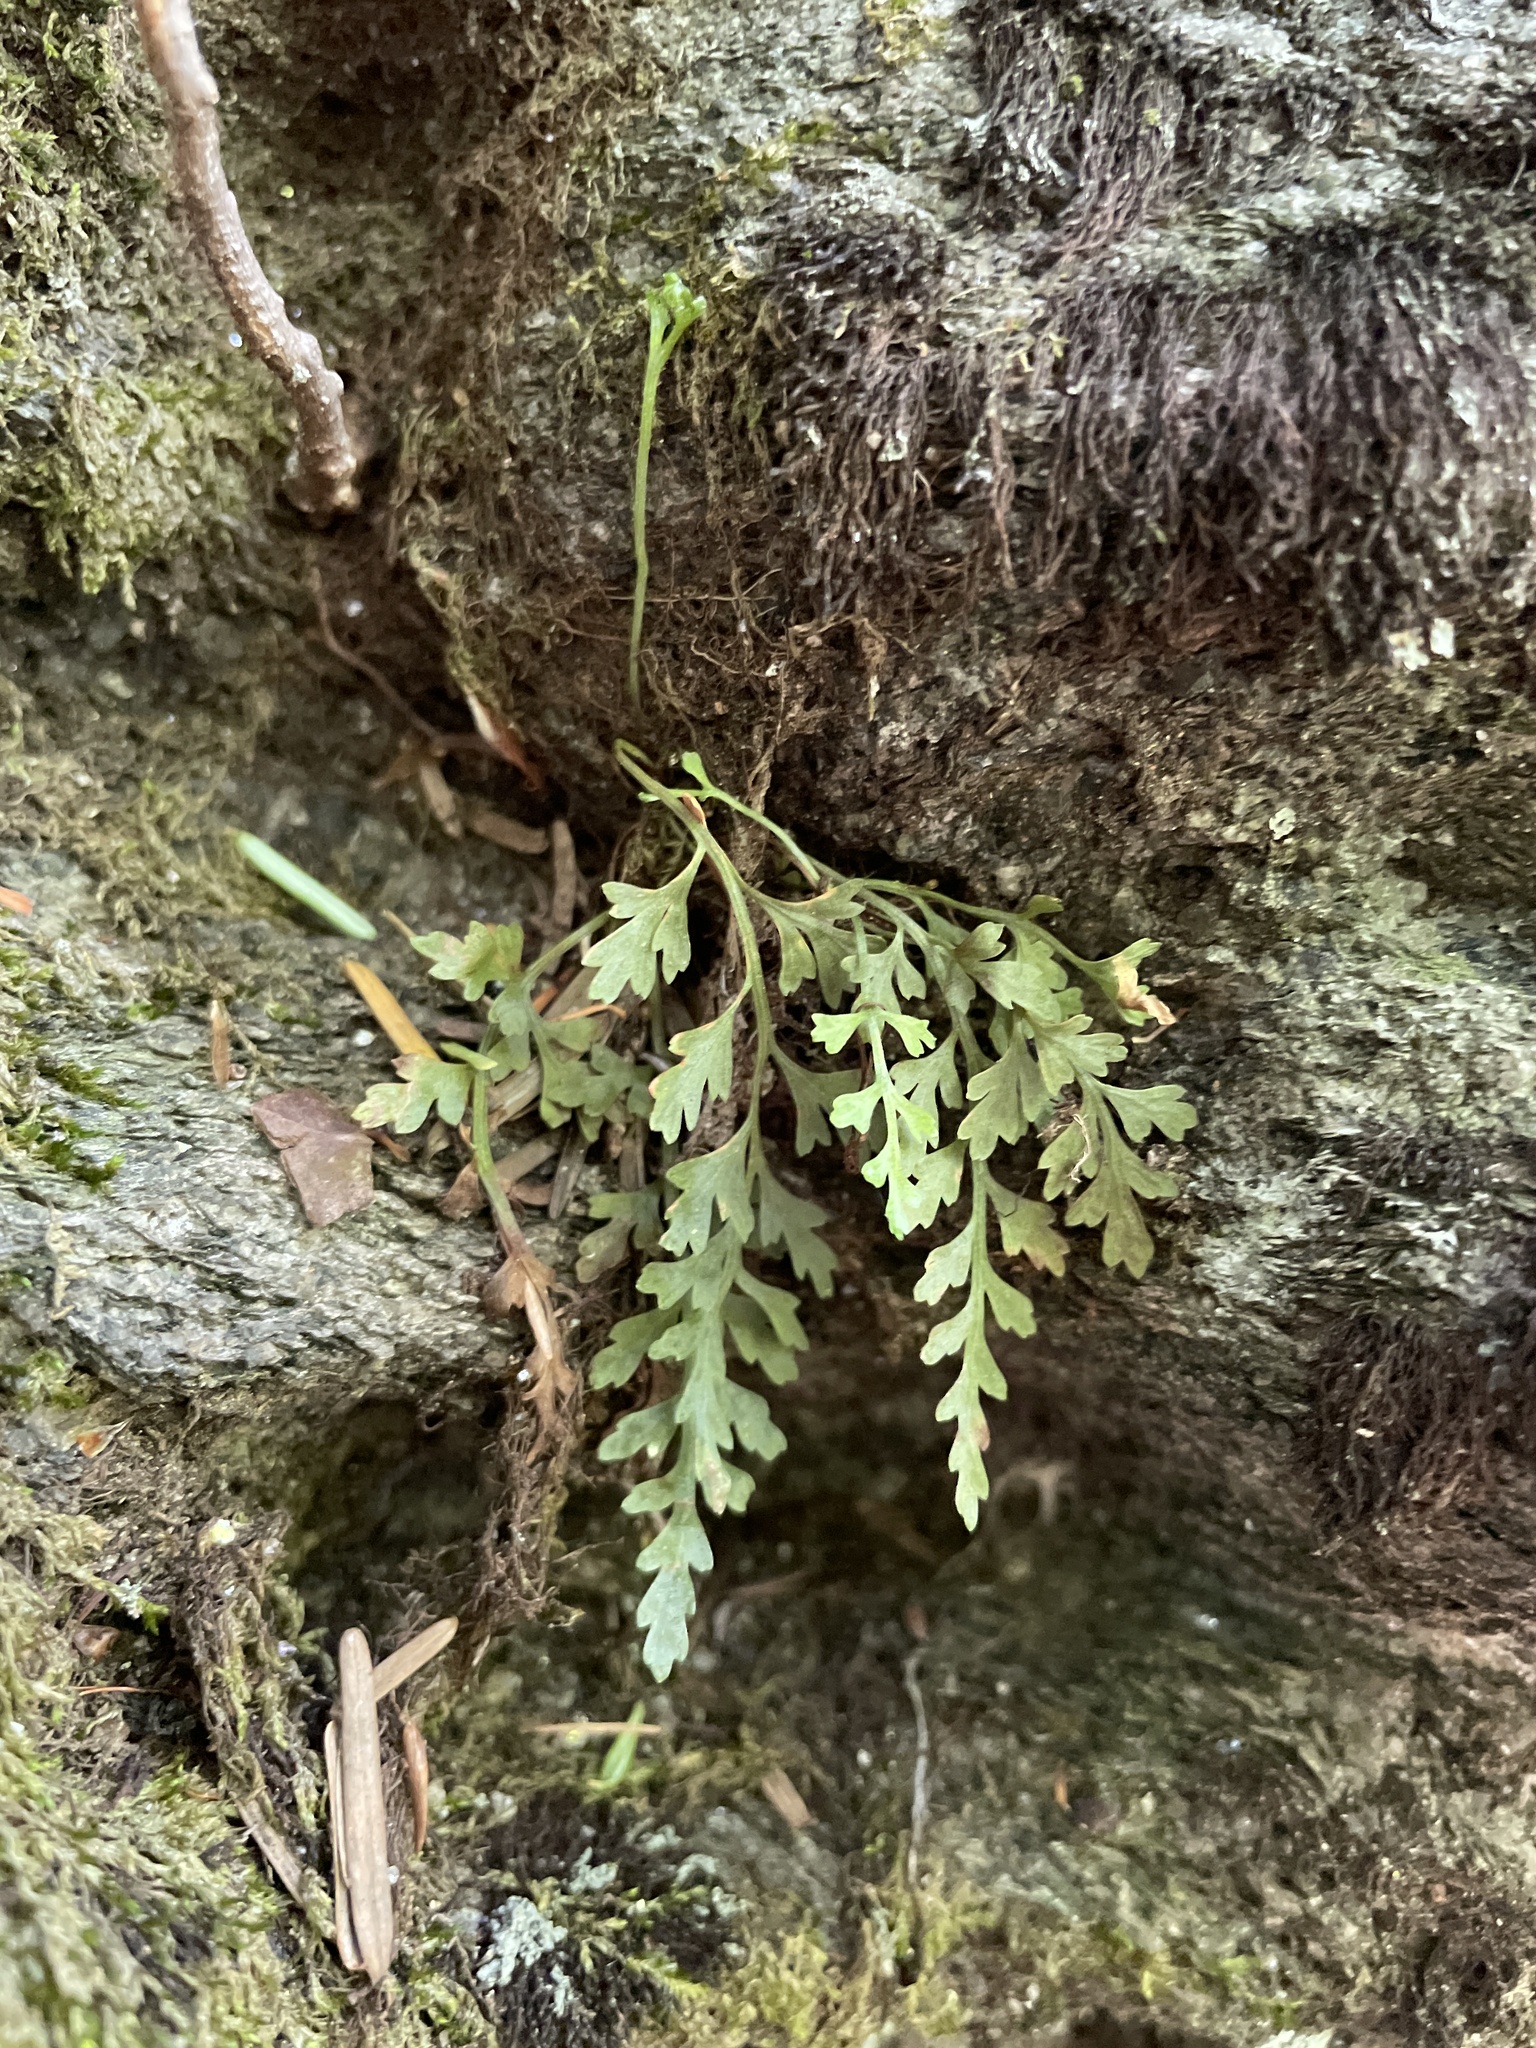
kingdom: Plantae
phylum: Tracheophyta
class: Polypodiopsida
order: Polypodiales
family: Aspleniaceae
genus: Asplenium
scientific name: Asplenium montanum
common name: Mountain spleenwort
